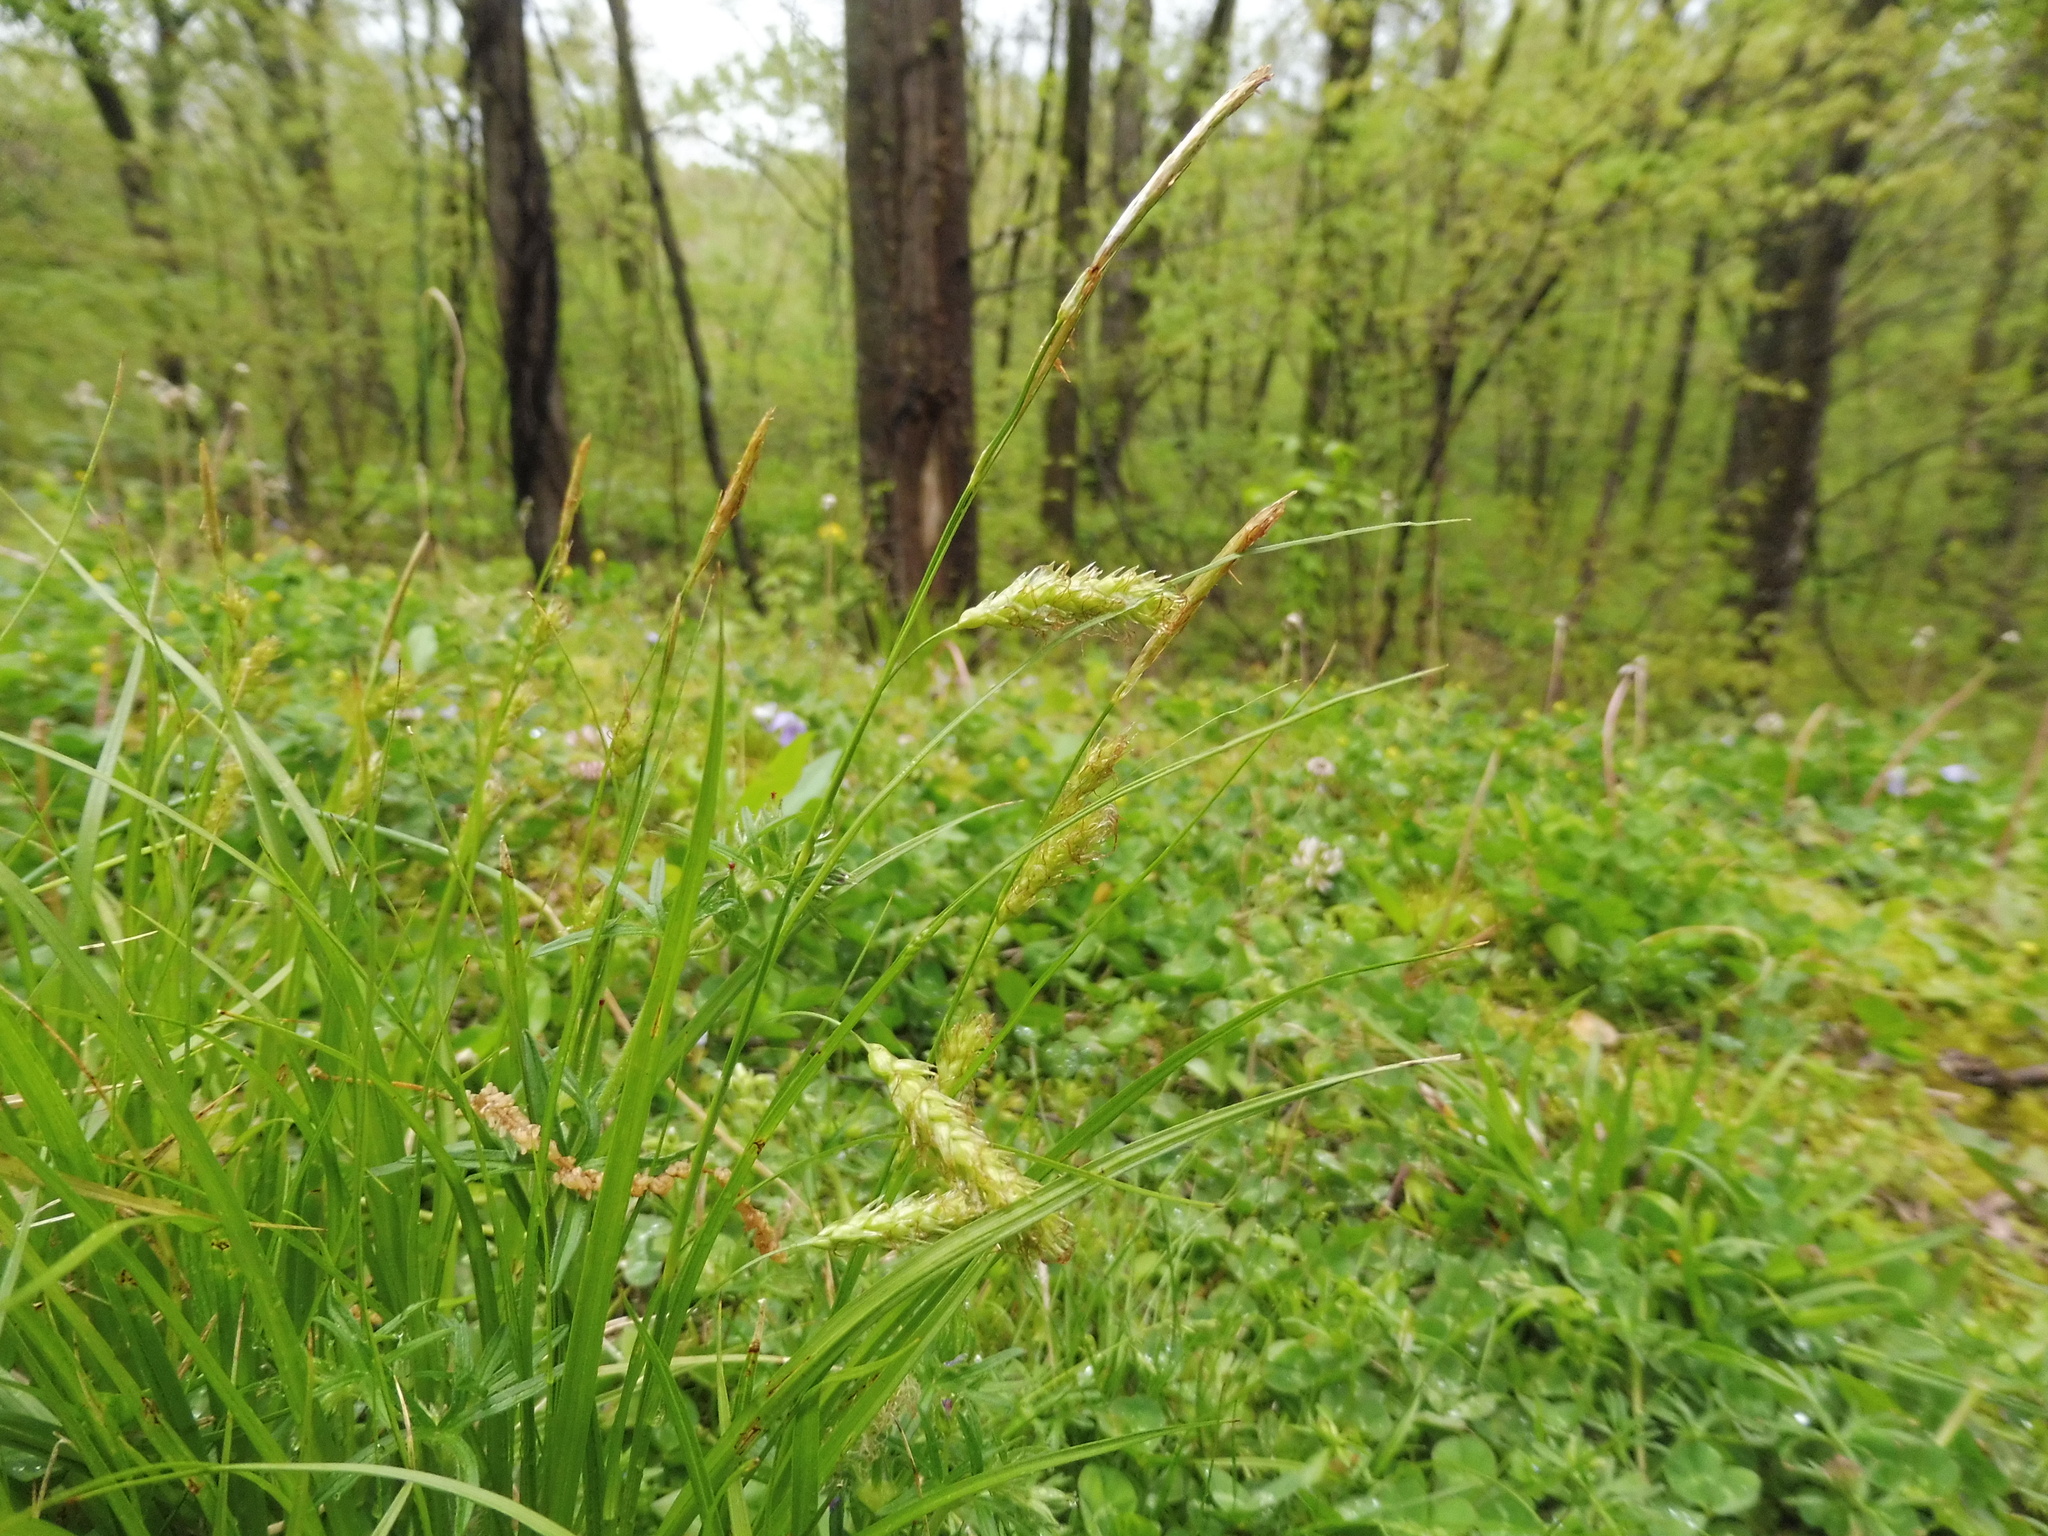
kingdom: Plantae
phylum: Tracheophyta
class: Liliopsida
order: Poales
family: Cyperaceae
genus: Carex
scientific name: Carex cherokeensis
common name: Cherokee sedge
